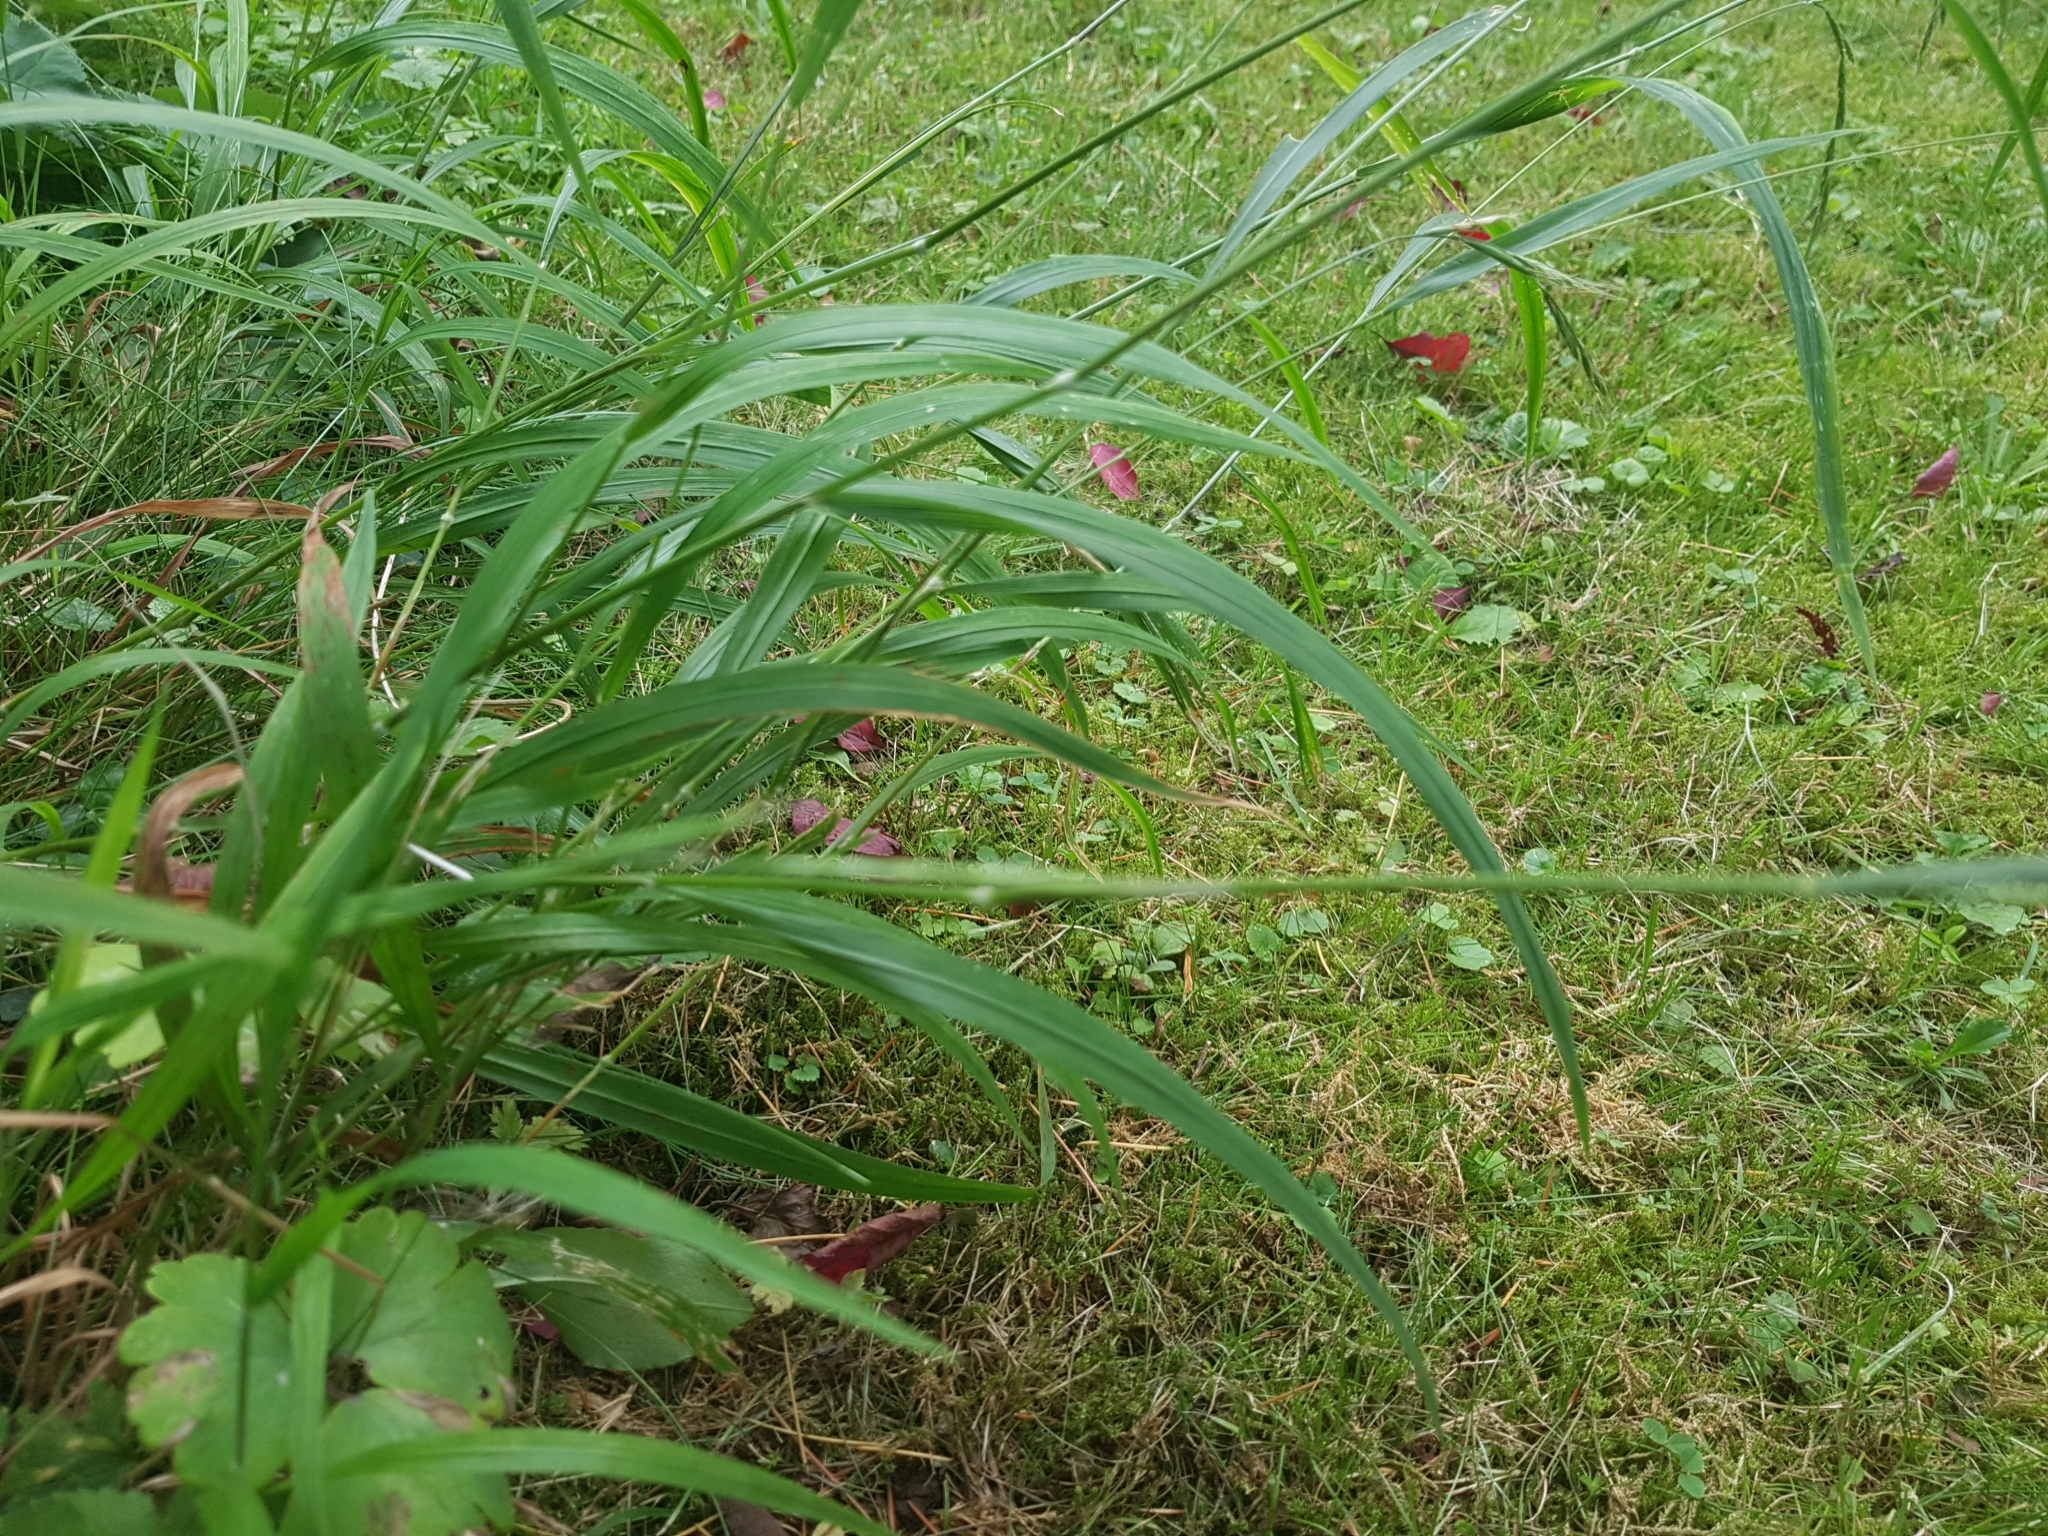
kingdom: Plantae
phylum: Tracheophyta
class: Liliopsida
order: Poales
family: Poaceae
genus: Brachypodium
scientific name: Brachypodium sylvaticum
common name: False-brome
